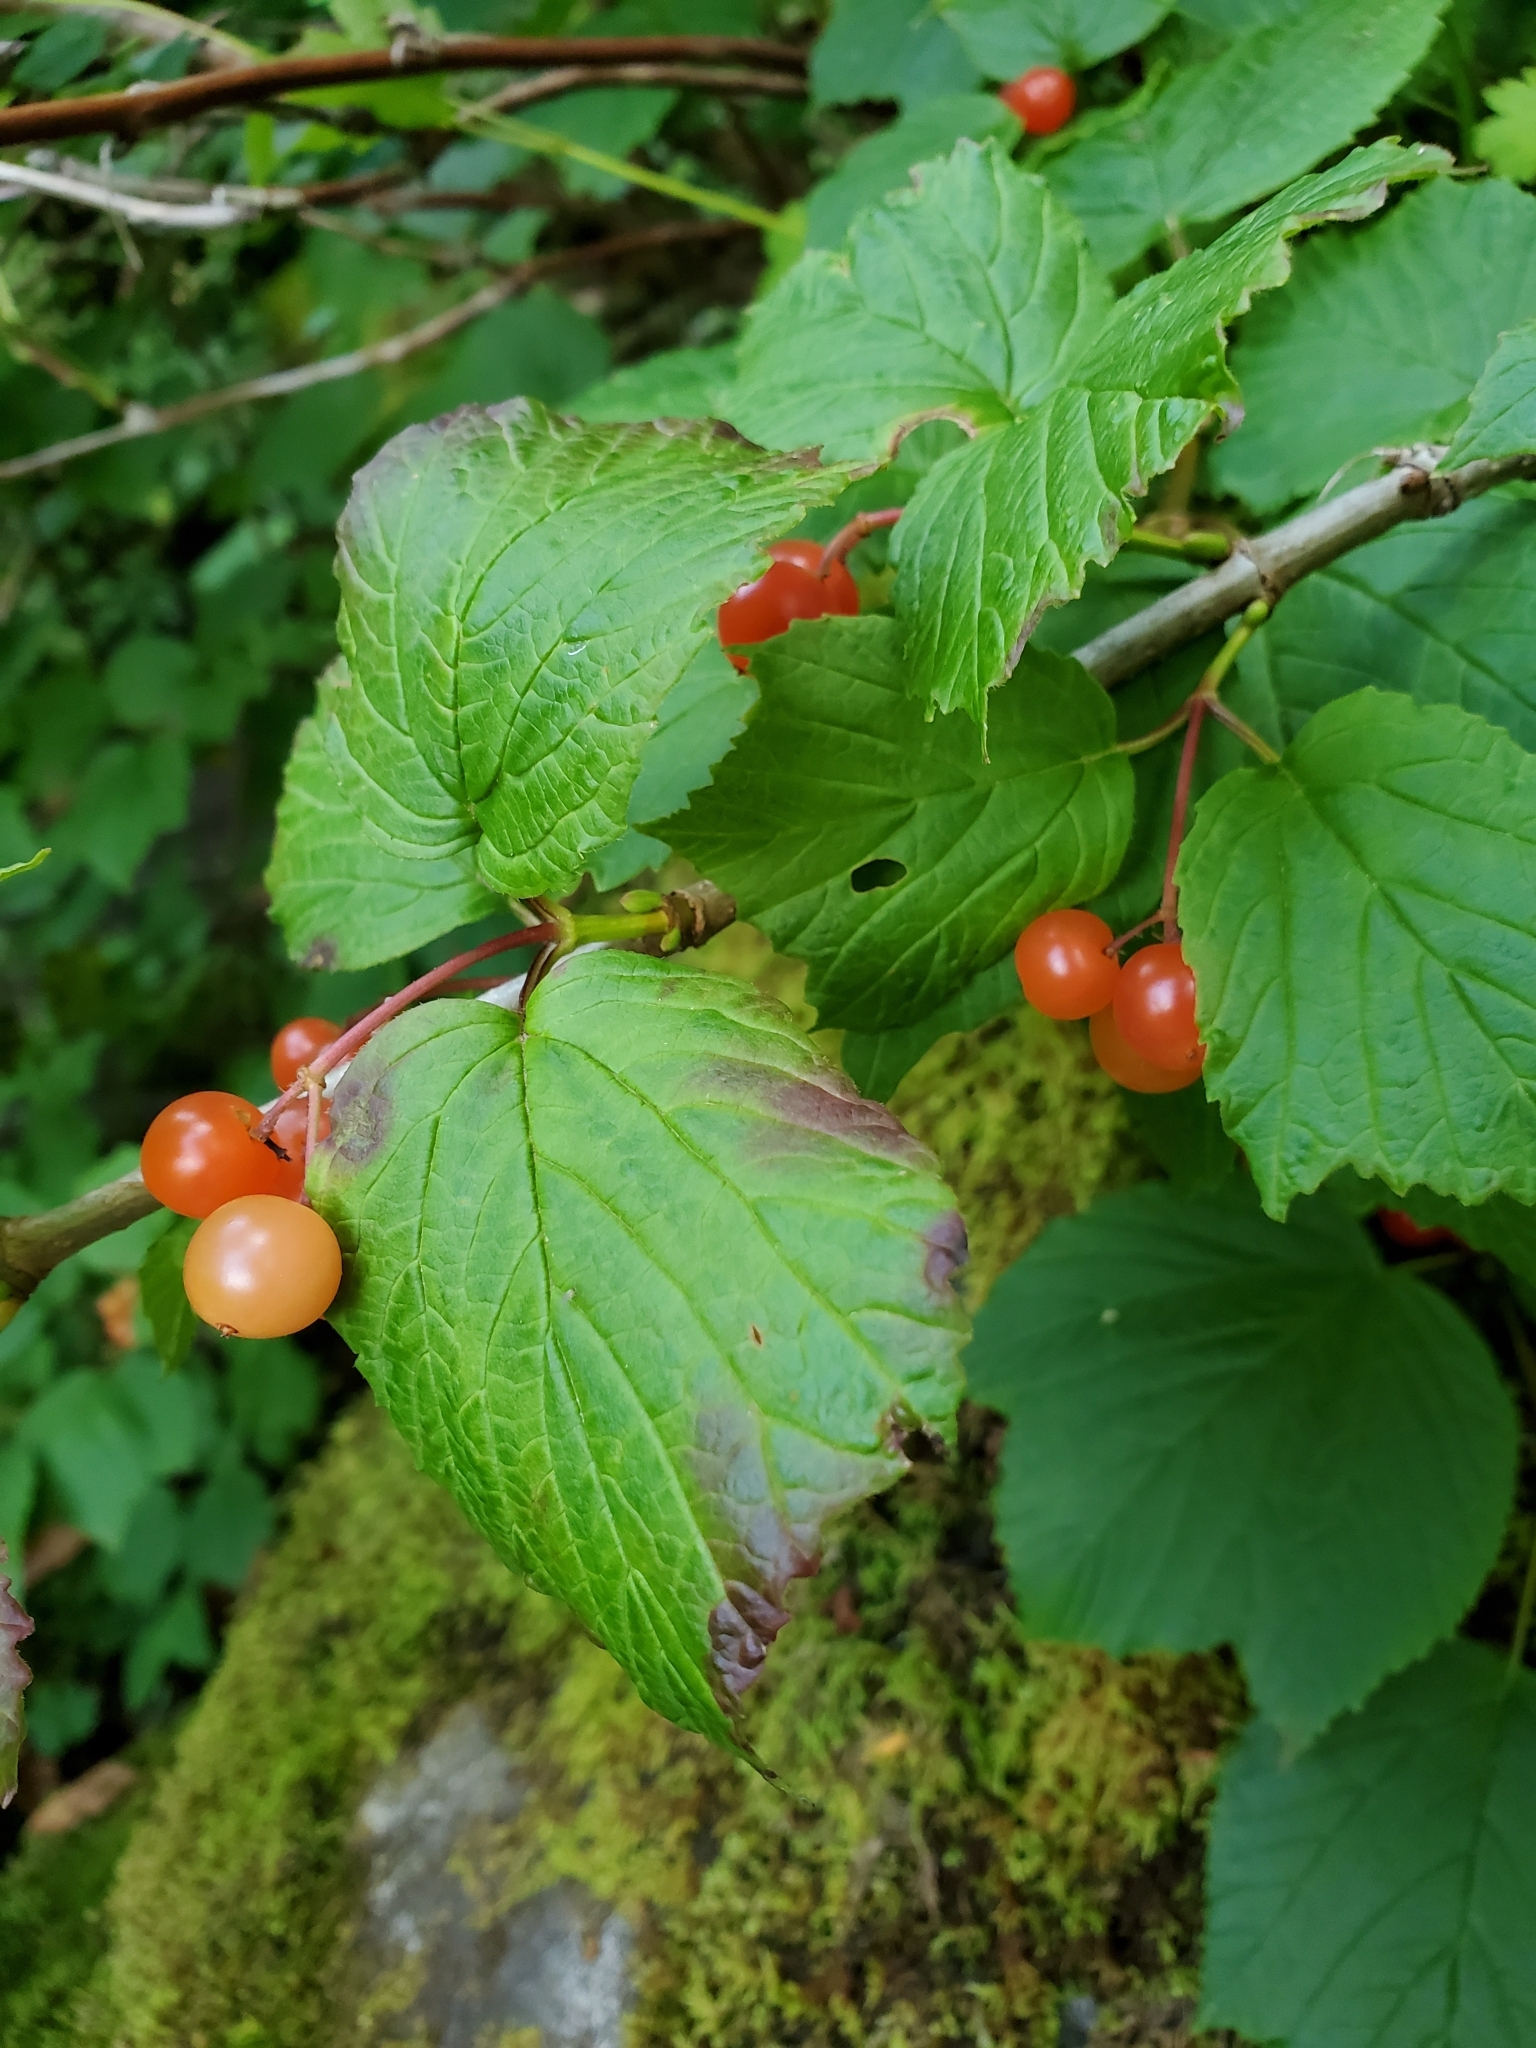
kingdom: Plantae
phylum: Tracheophyta
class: Magnoliopsida
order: Dipsacales
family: Viburnaceae
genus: Viburnum
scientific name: Viburnum edule
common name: Mooseberry
